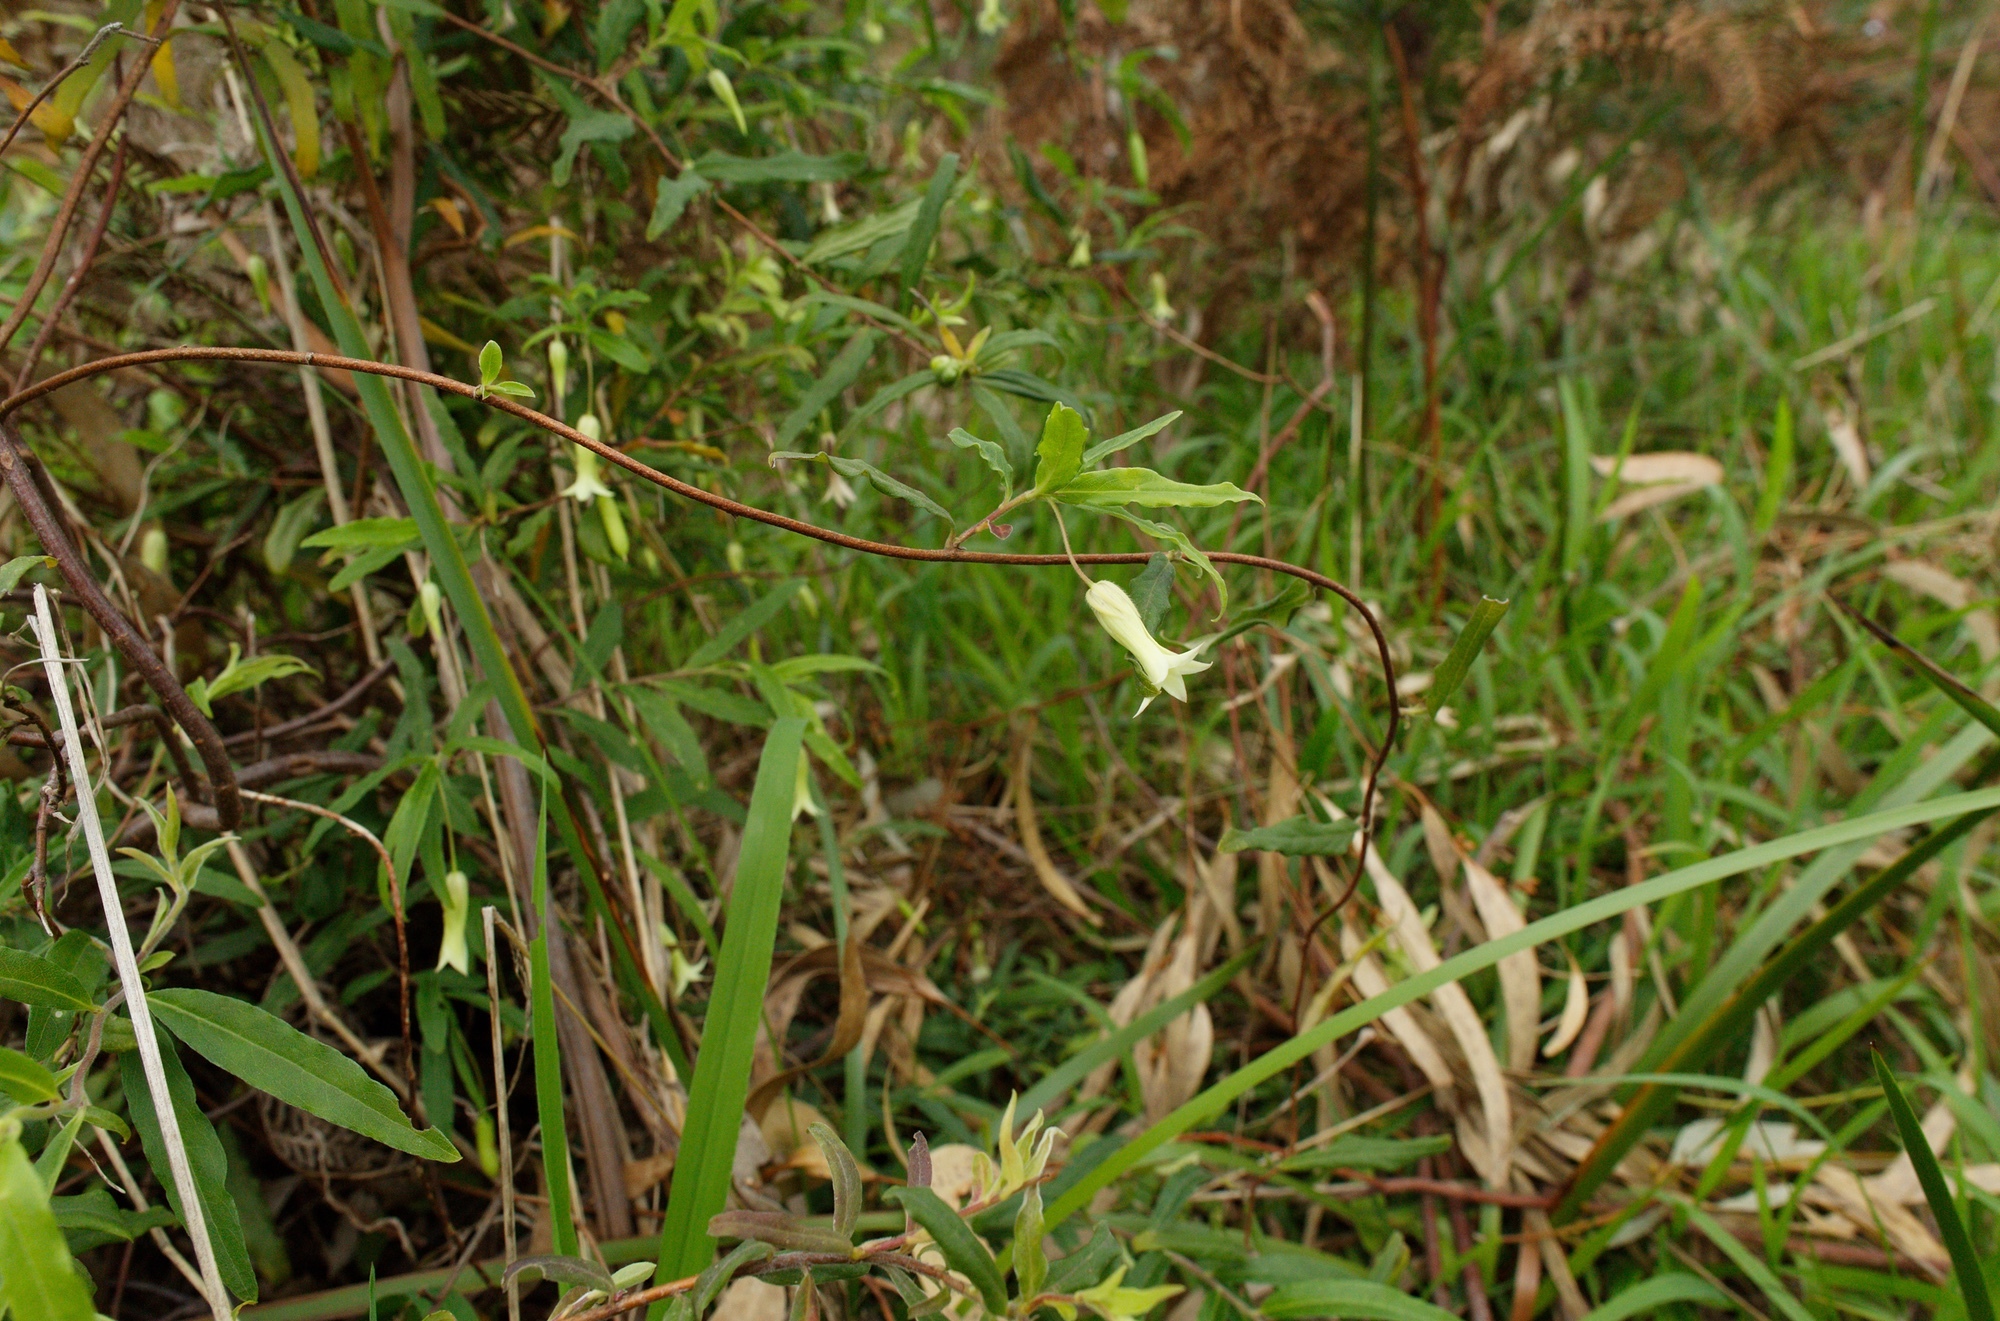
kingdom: Plantae
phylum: Tracheophyta
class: Magnoliopsida
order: Apiales
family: Pittosporaceae
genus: Billardiera
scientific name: Billardiera mutabilis
